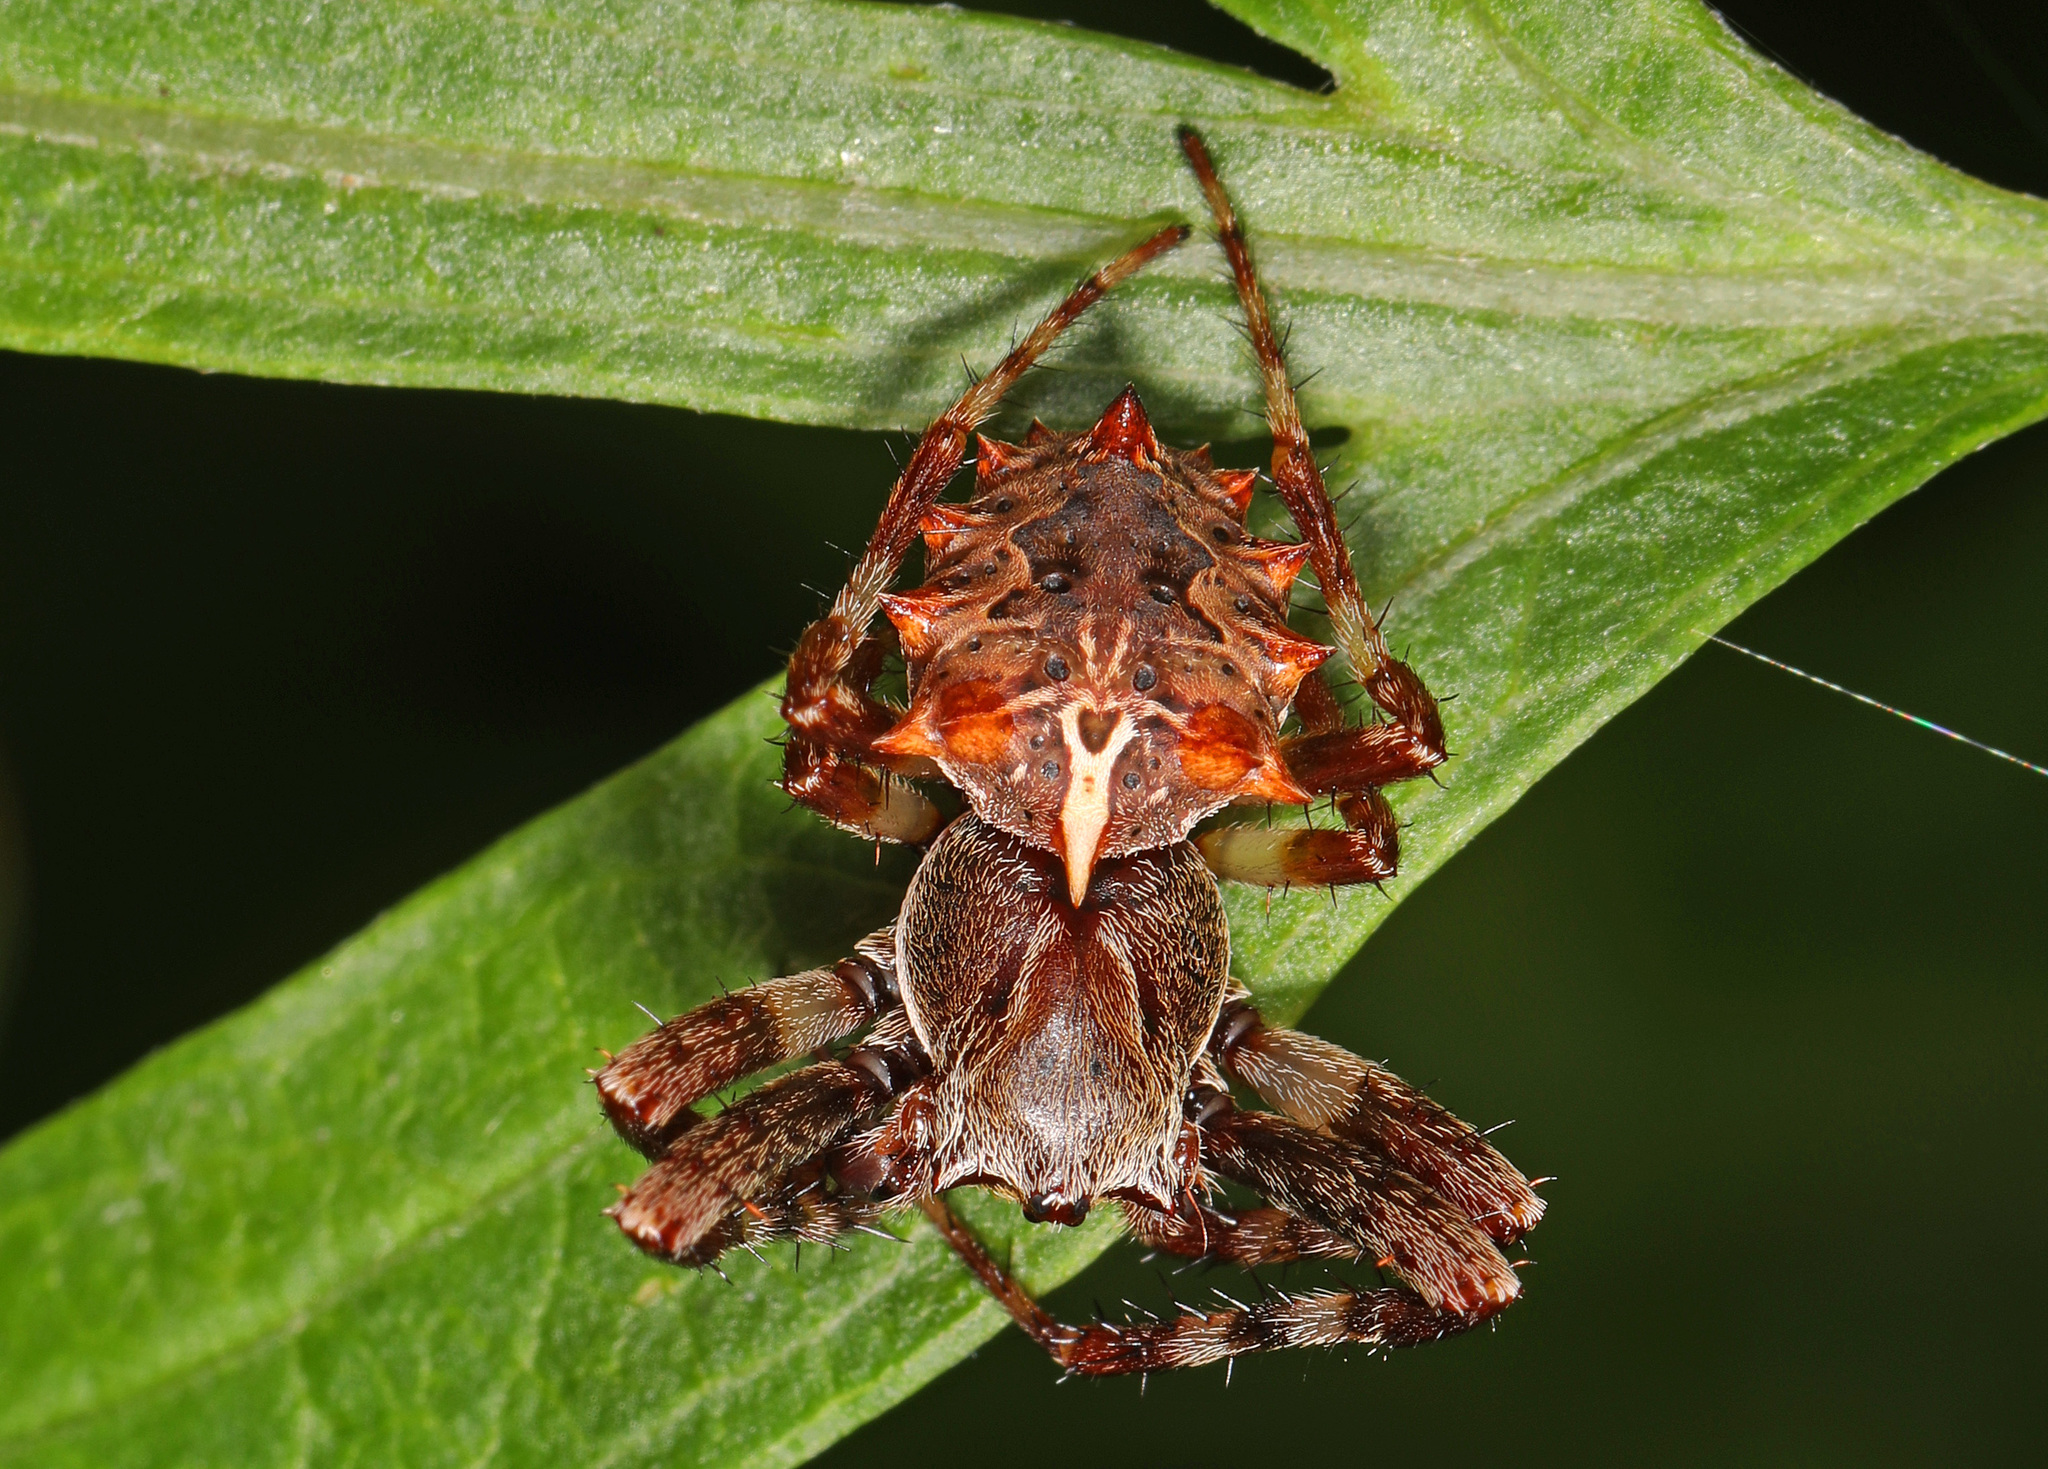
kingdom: Animalia
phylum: Arthropoda
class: Arachnida
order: Araneae
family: Araneidae
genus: Acanthepeira
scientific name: Acanthepeira stellata
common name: Starbellied orbweaver
